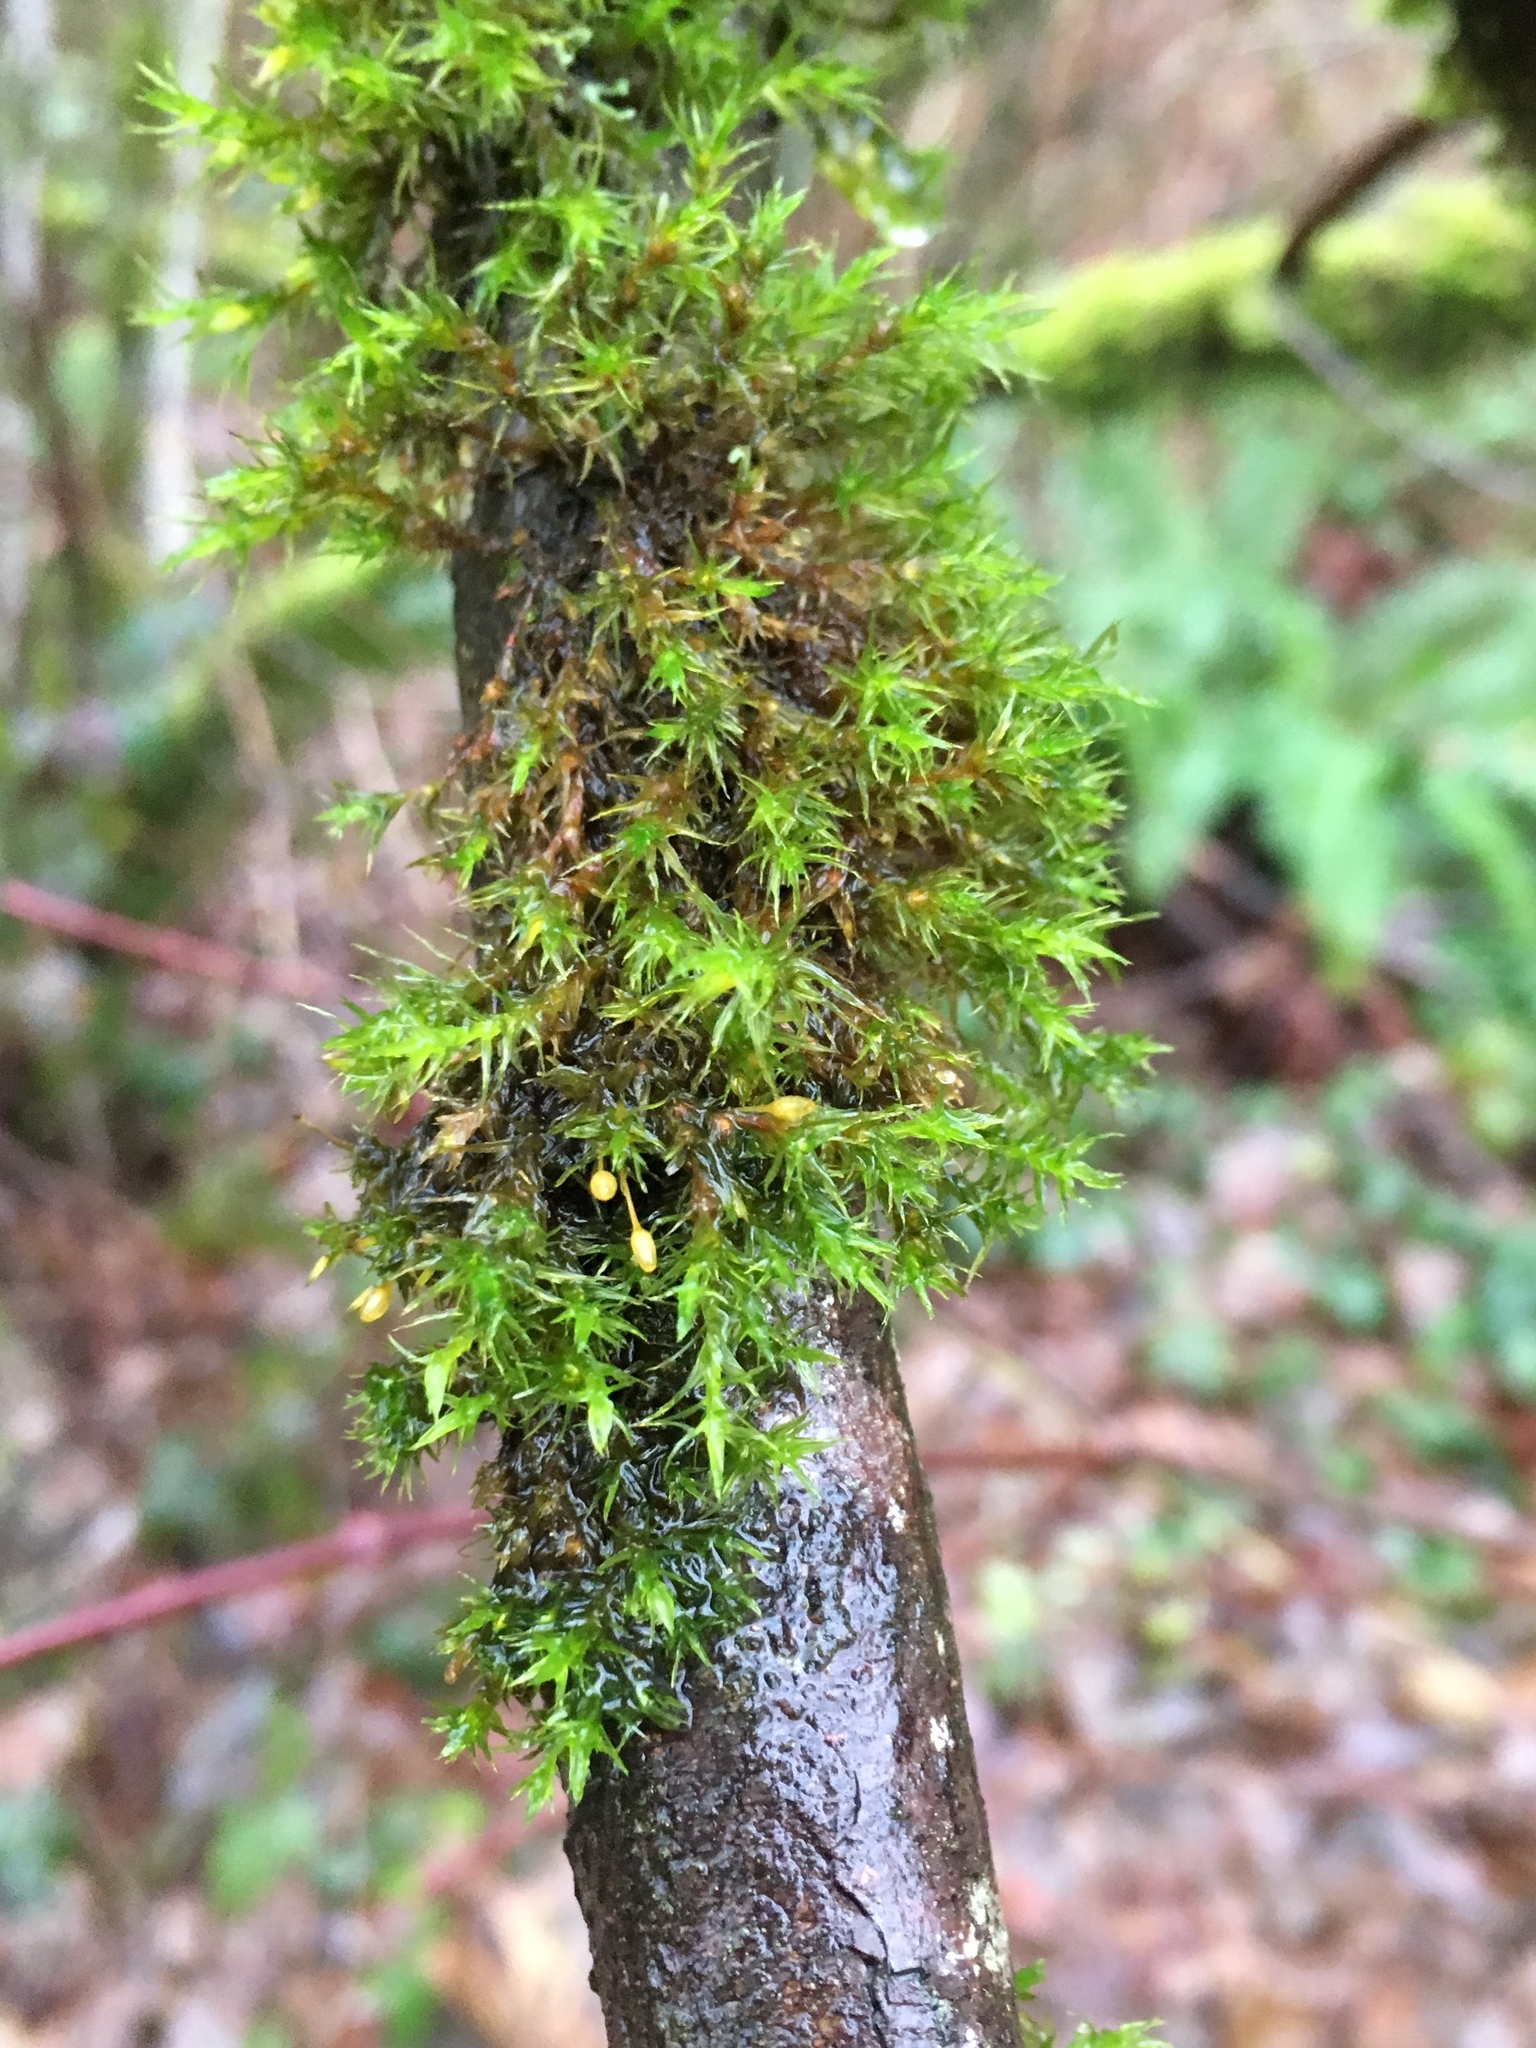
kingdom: Plantae
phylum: Bryophyta
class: Bryopsida
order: Orthotrichales
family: Orthotrichaceae
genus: Pulvigera
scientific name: Pulvigera lyellii
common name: Lyell's bristle-moss
